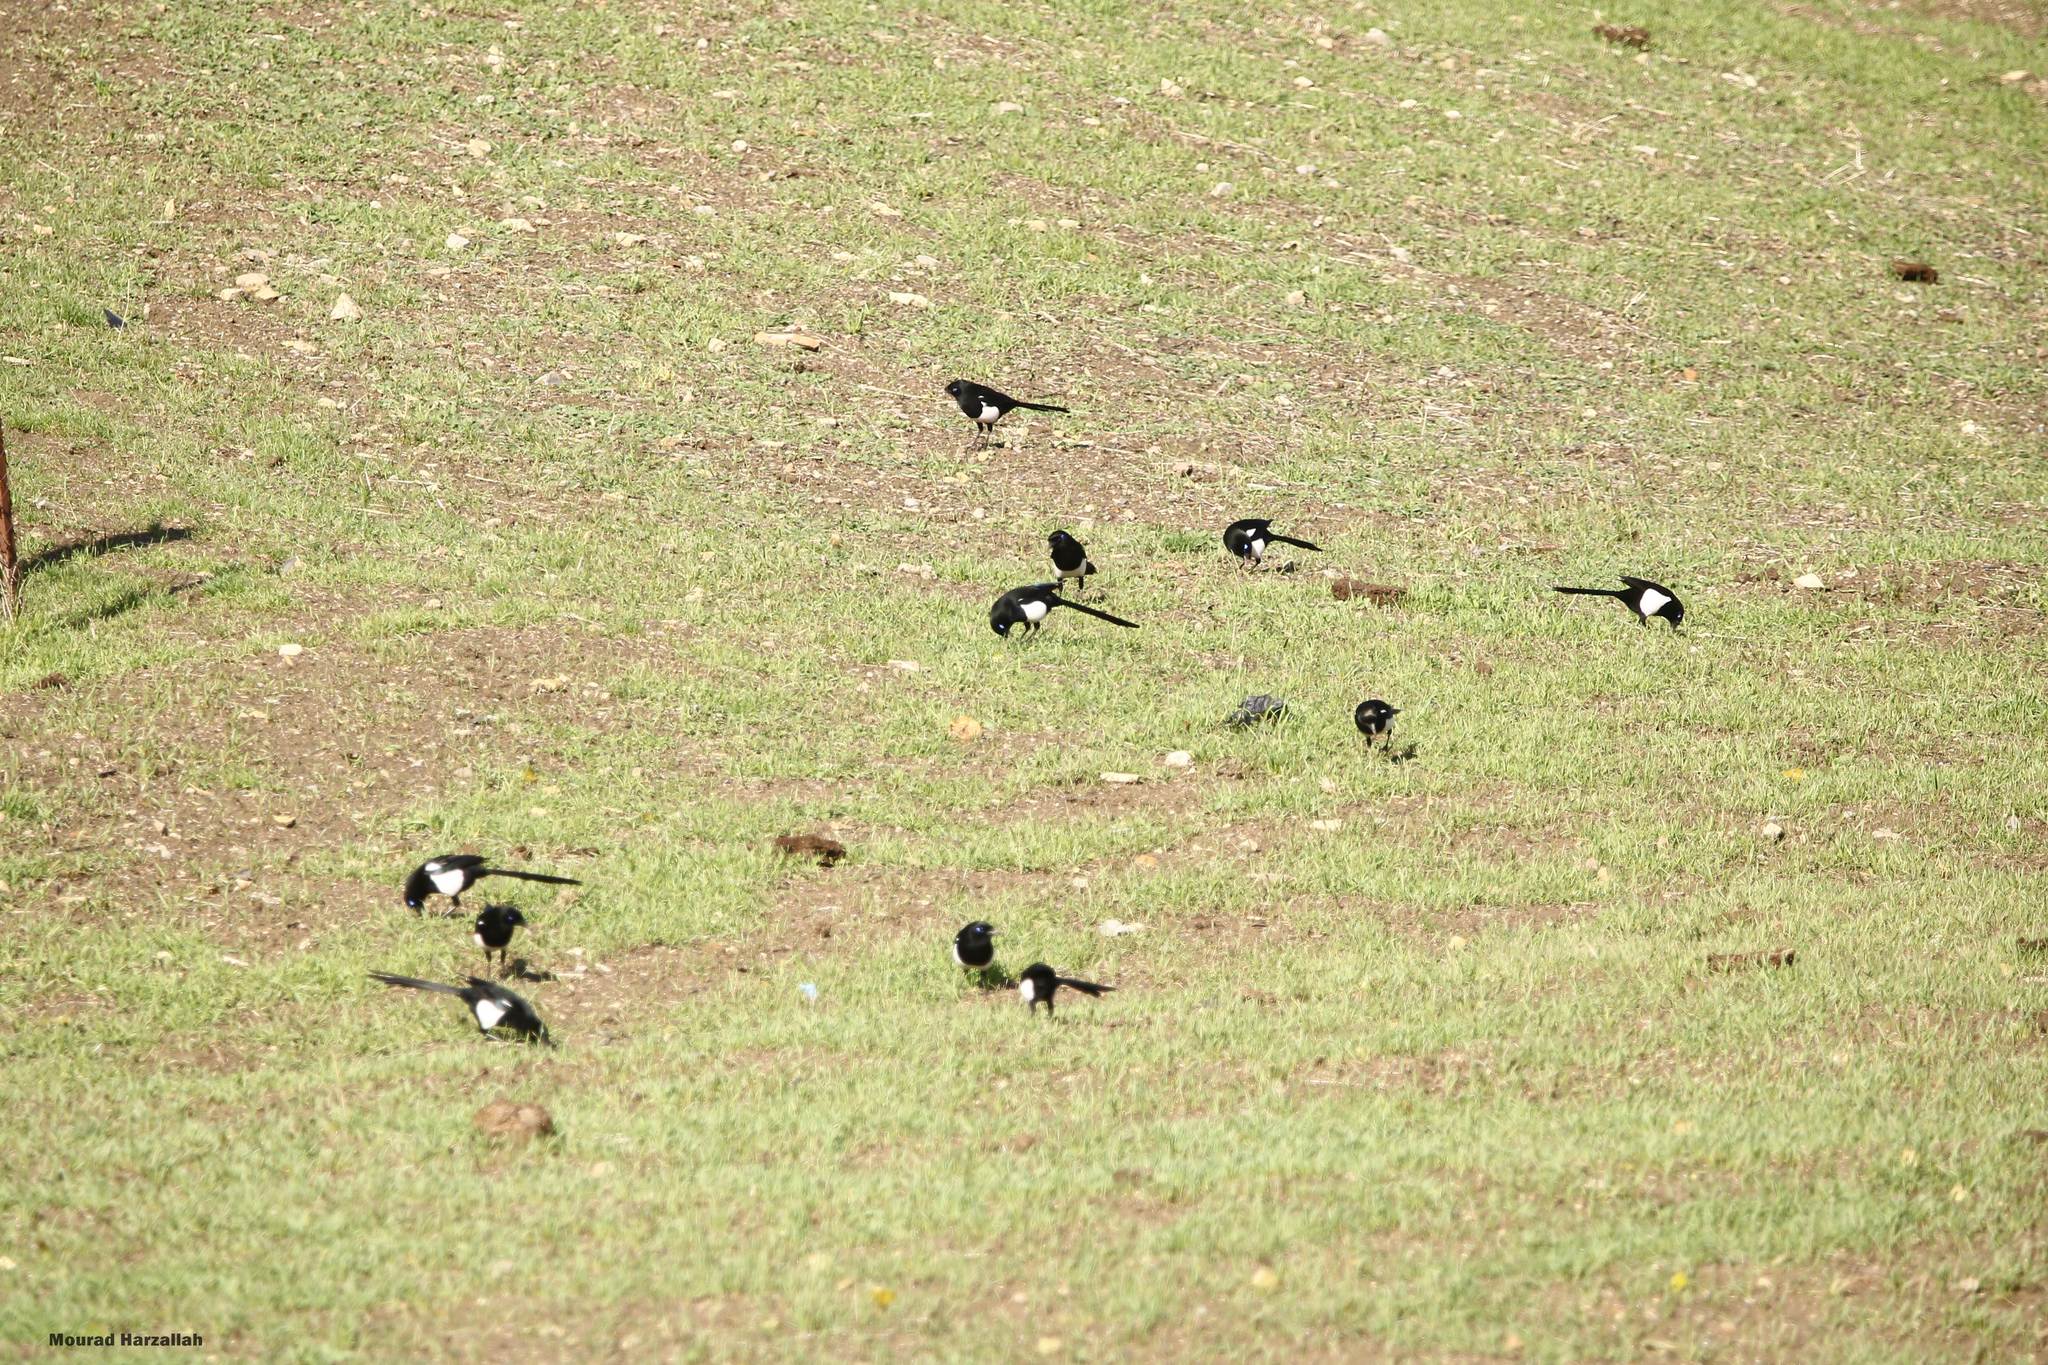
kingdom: Animalia
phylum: Chordata
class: Aves
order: Passeriformes
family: Corvidae
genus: Pica
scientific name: Pica mauritanica
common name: Maghreb magpie
